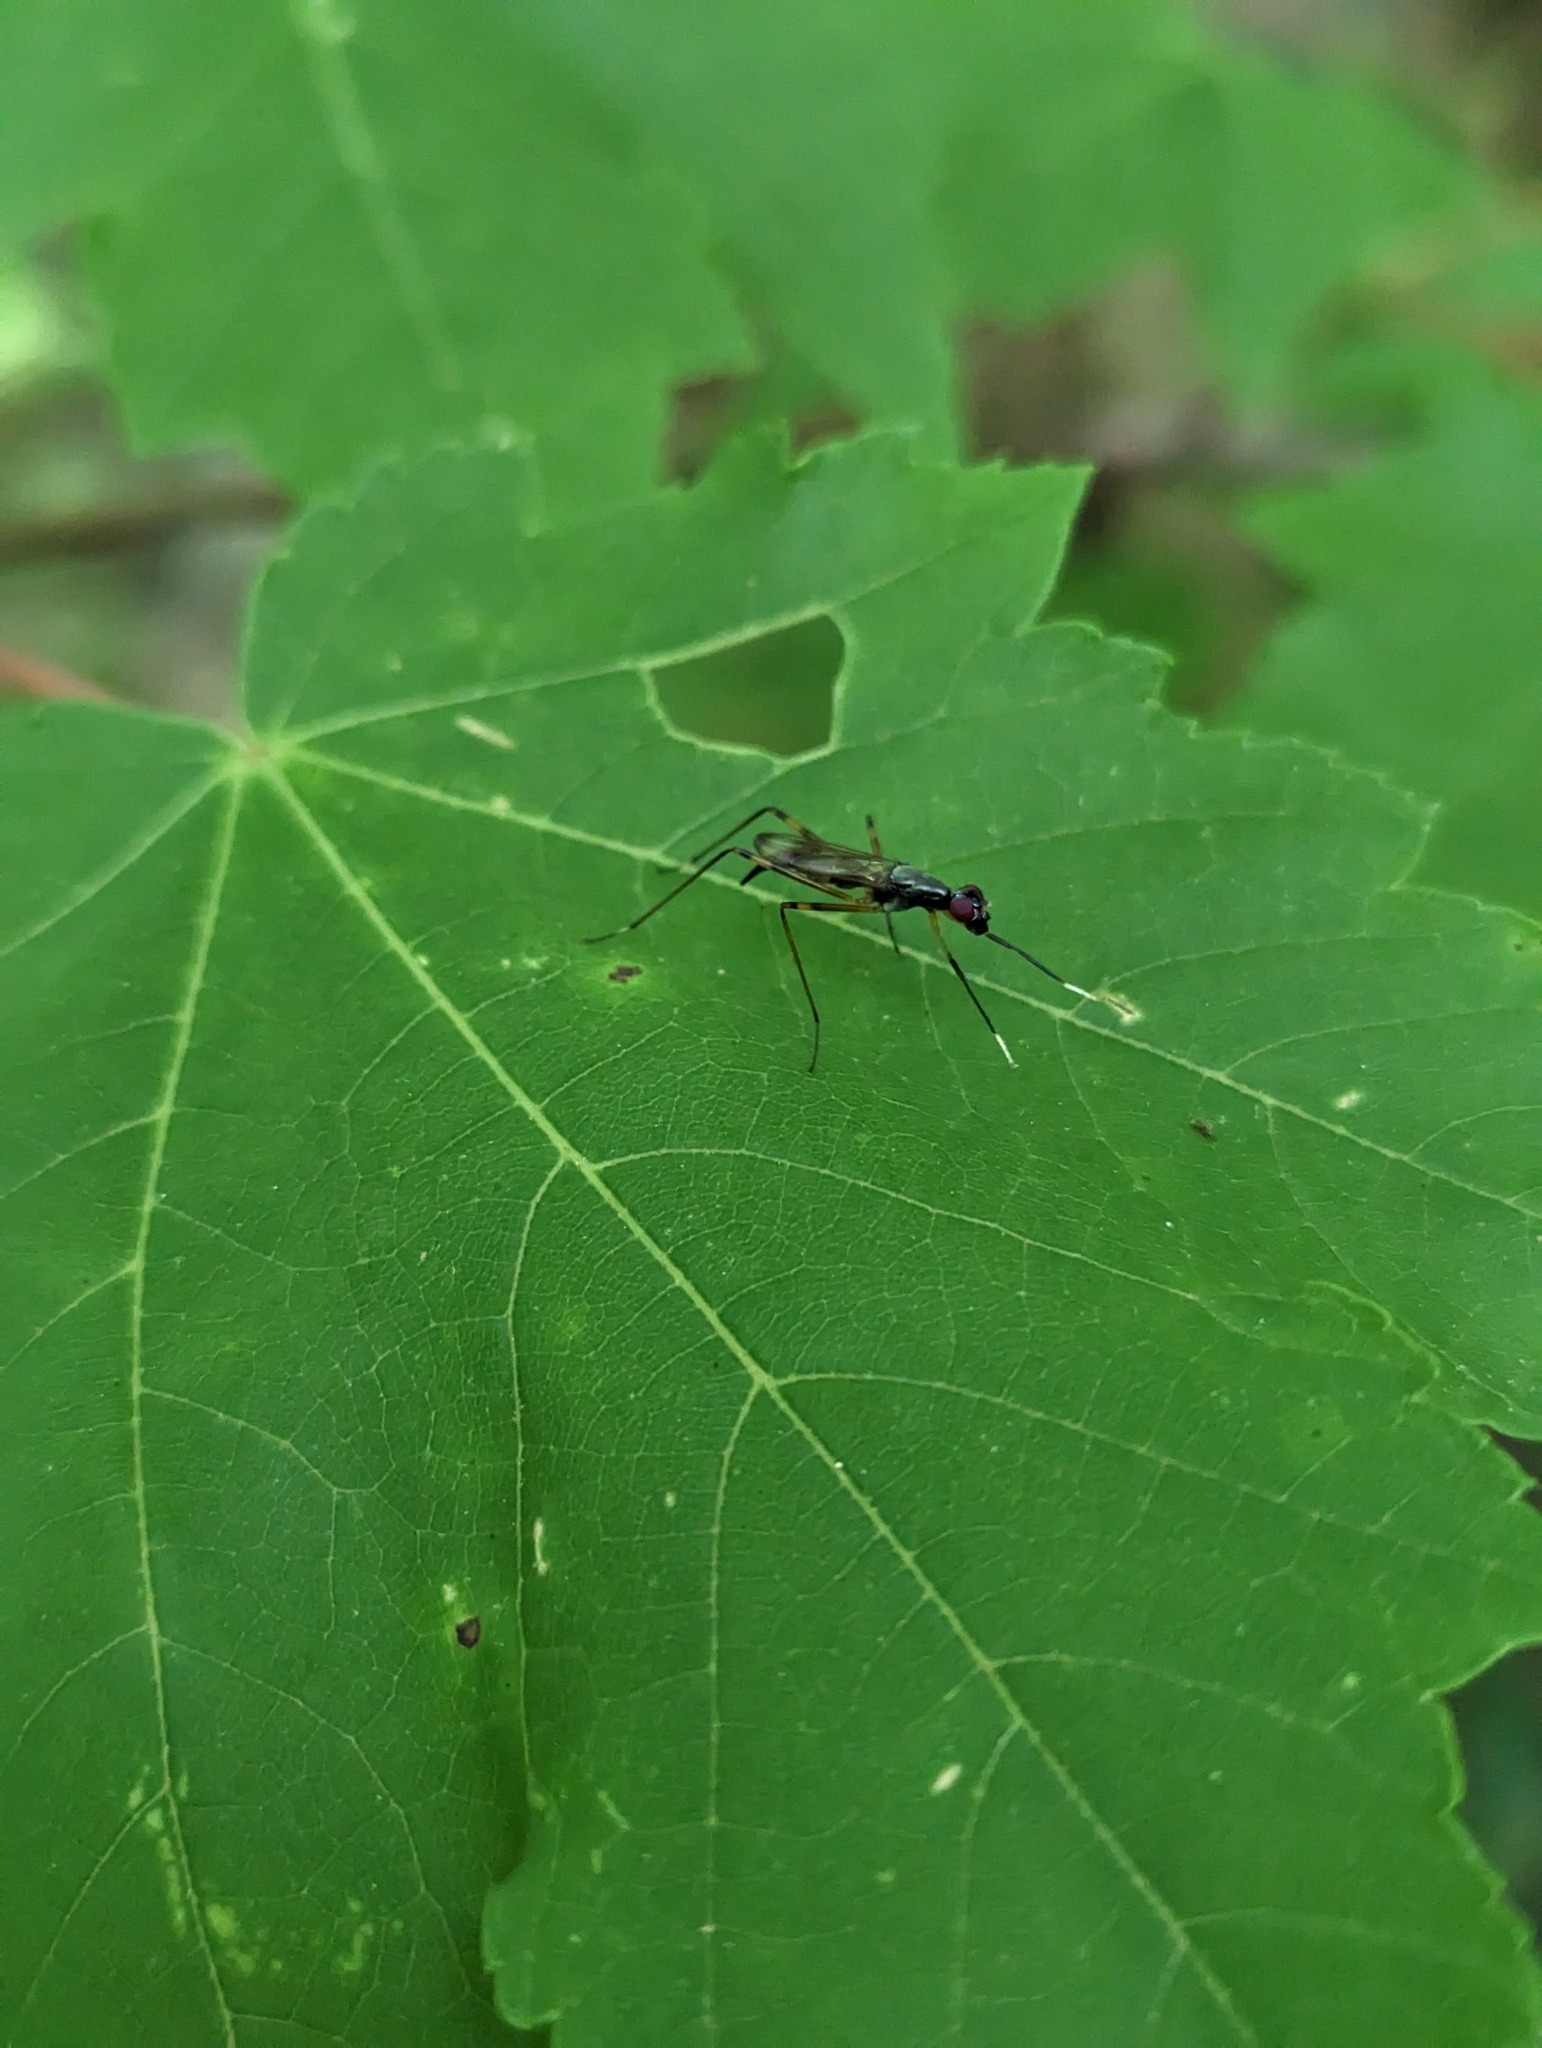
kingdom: Animalia
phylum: Arthropoda
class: Insecta
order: Diptera
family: Micropezidae
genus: Rainieria
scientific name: Rainieria antennaepes
